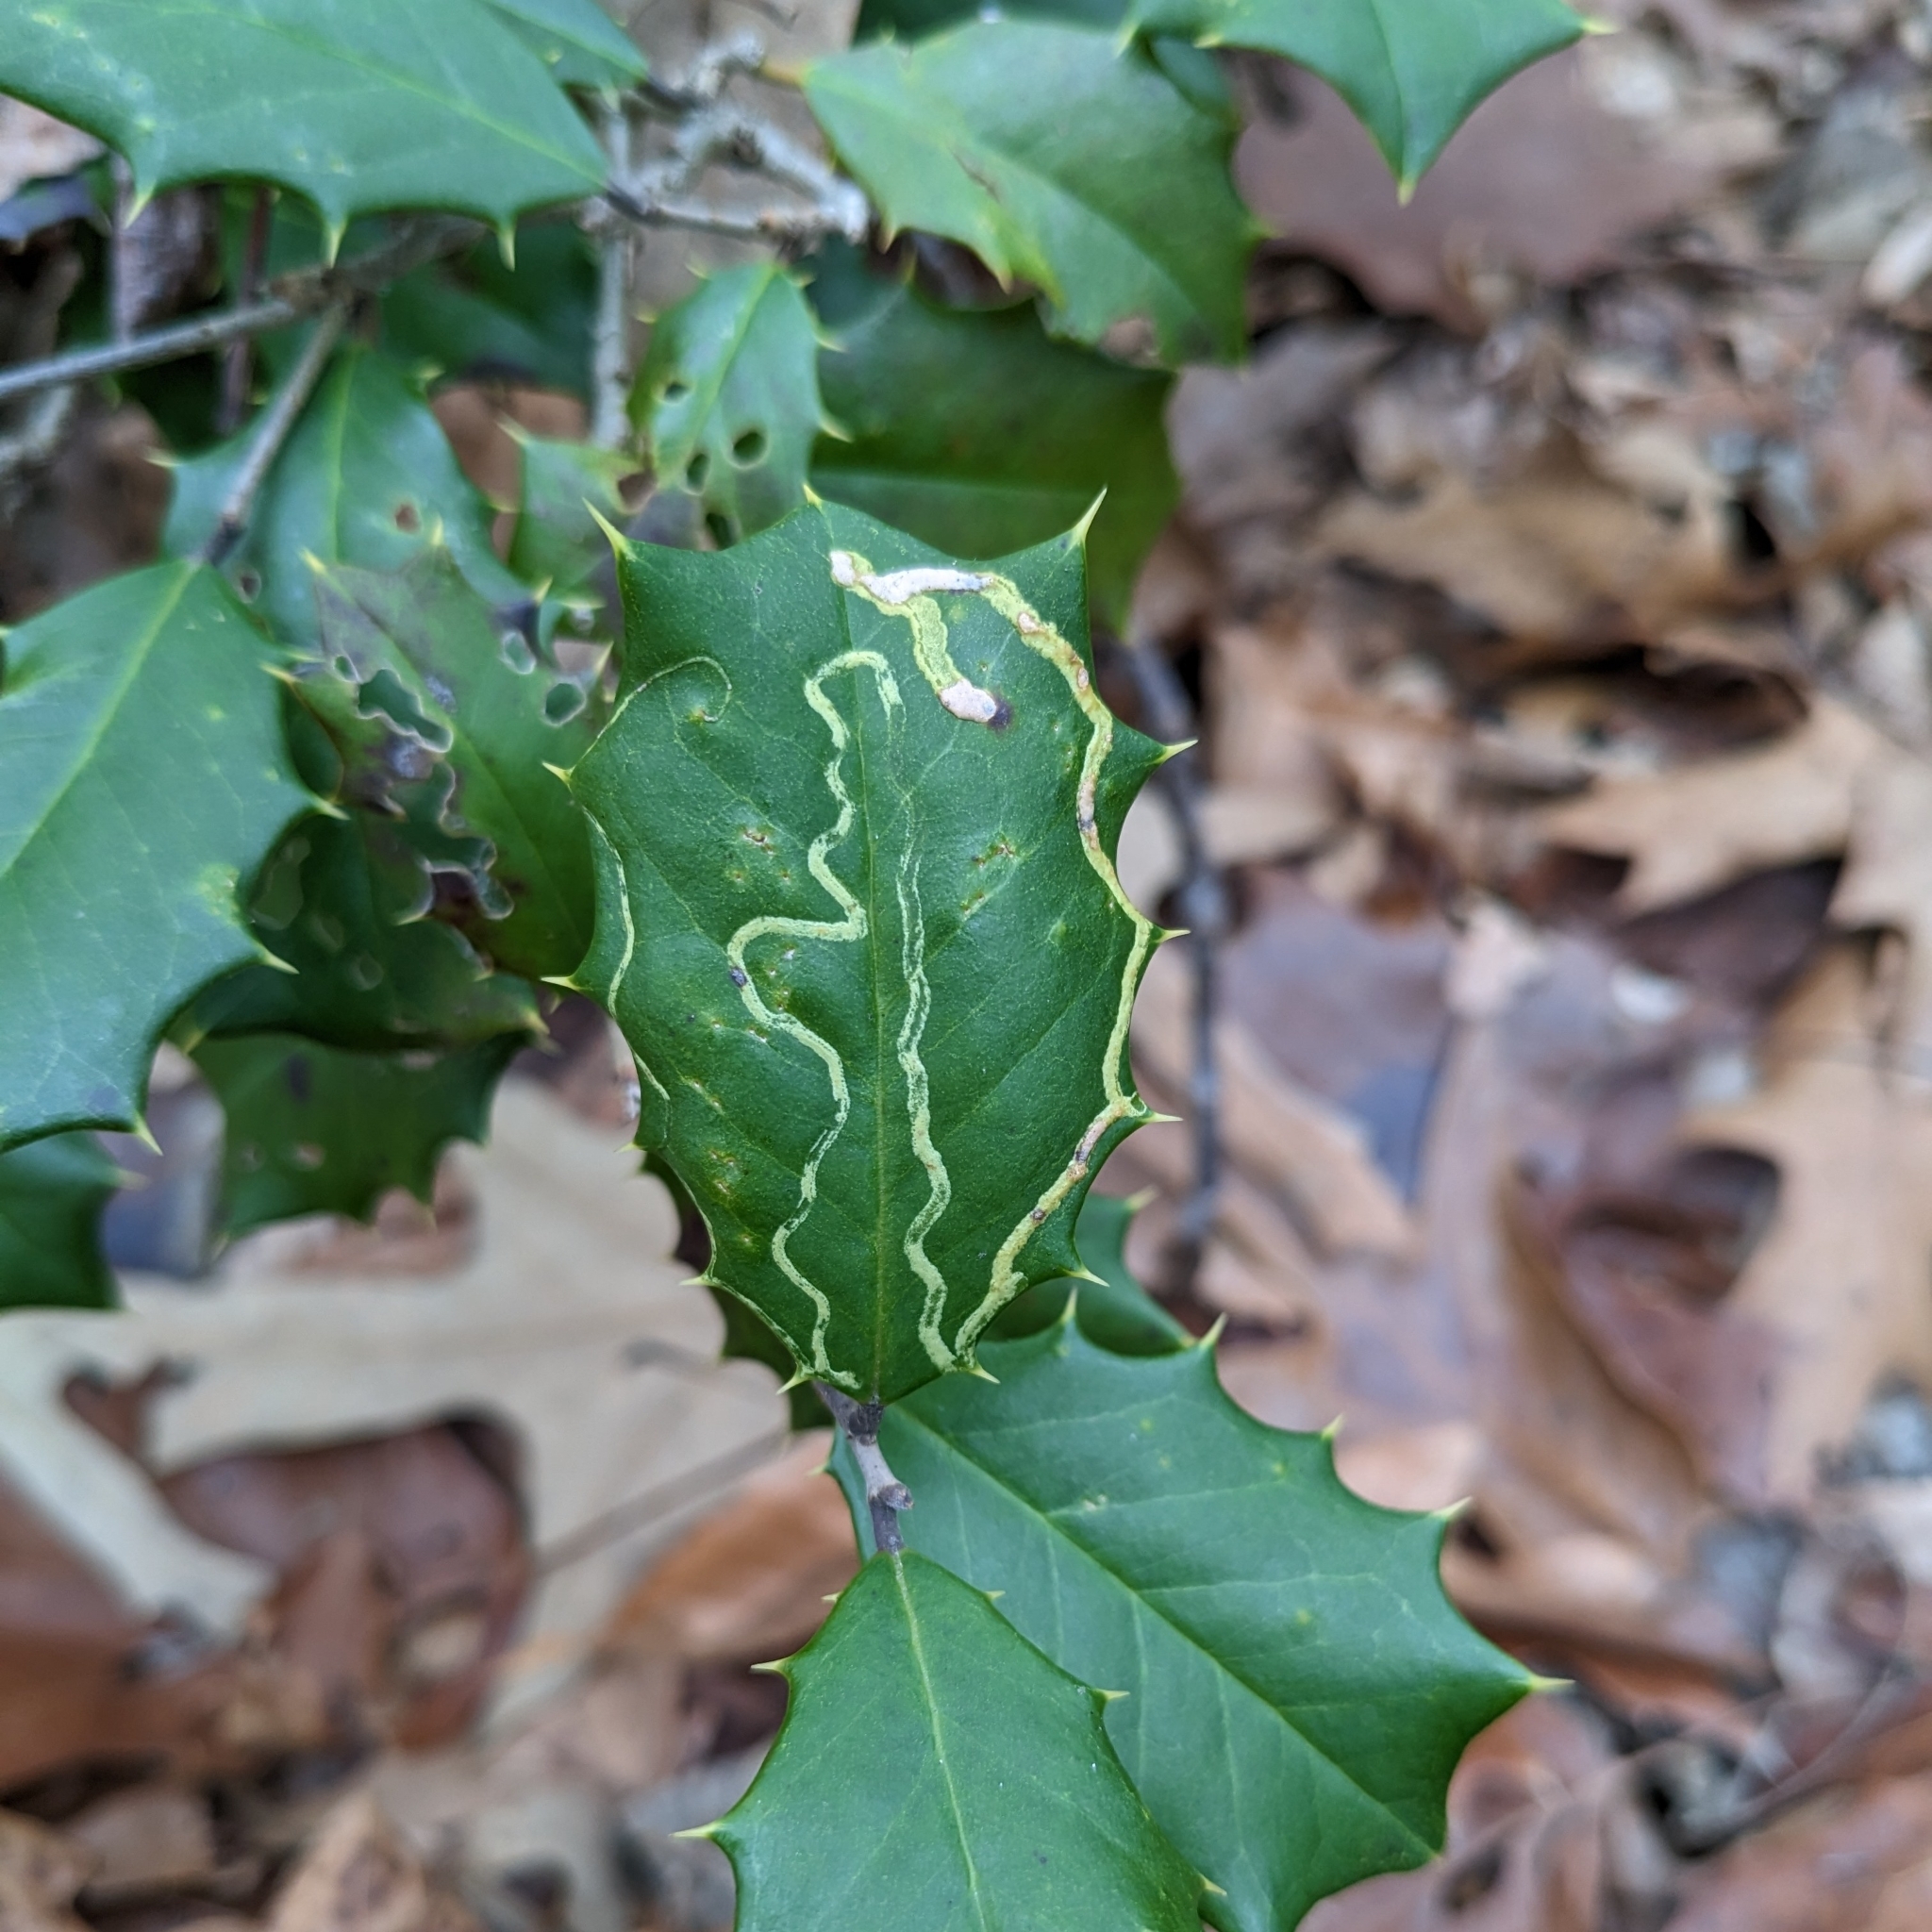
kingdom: Animalia
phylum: Arthropoda
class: Insecta
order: Diptera
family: Agromyzidae
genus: Phytomyza
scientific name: Phytomyza opacae
